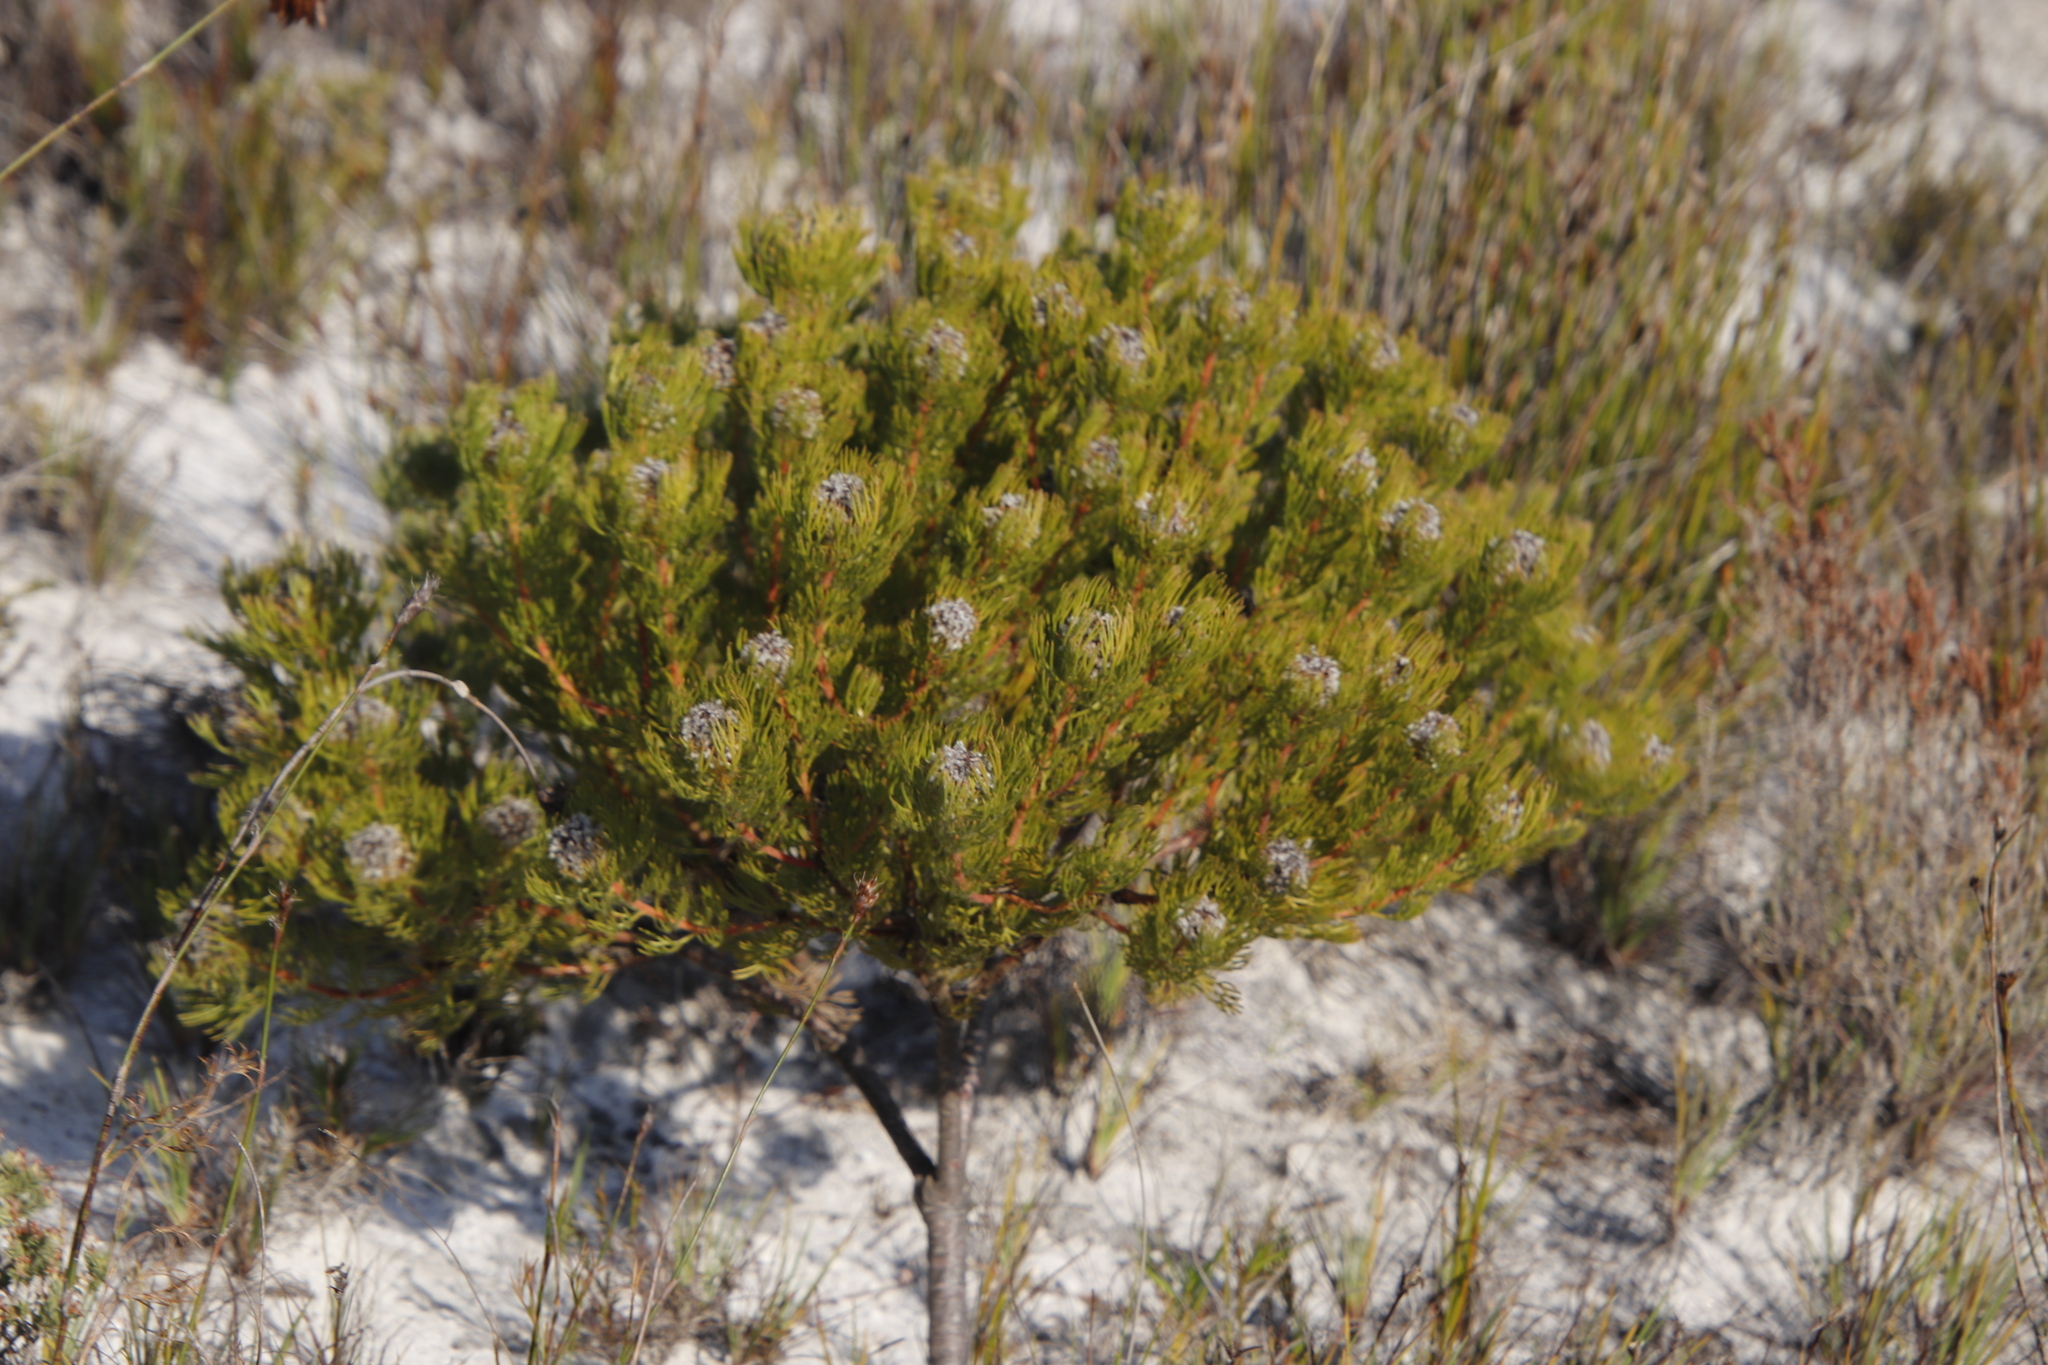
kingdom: Plantae
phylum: Tracheophyta
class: Magnoliopsida
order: Proteales
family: Proteaceae
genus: Serruria
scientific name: Serruria villosa
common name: Golden spiderhead
